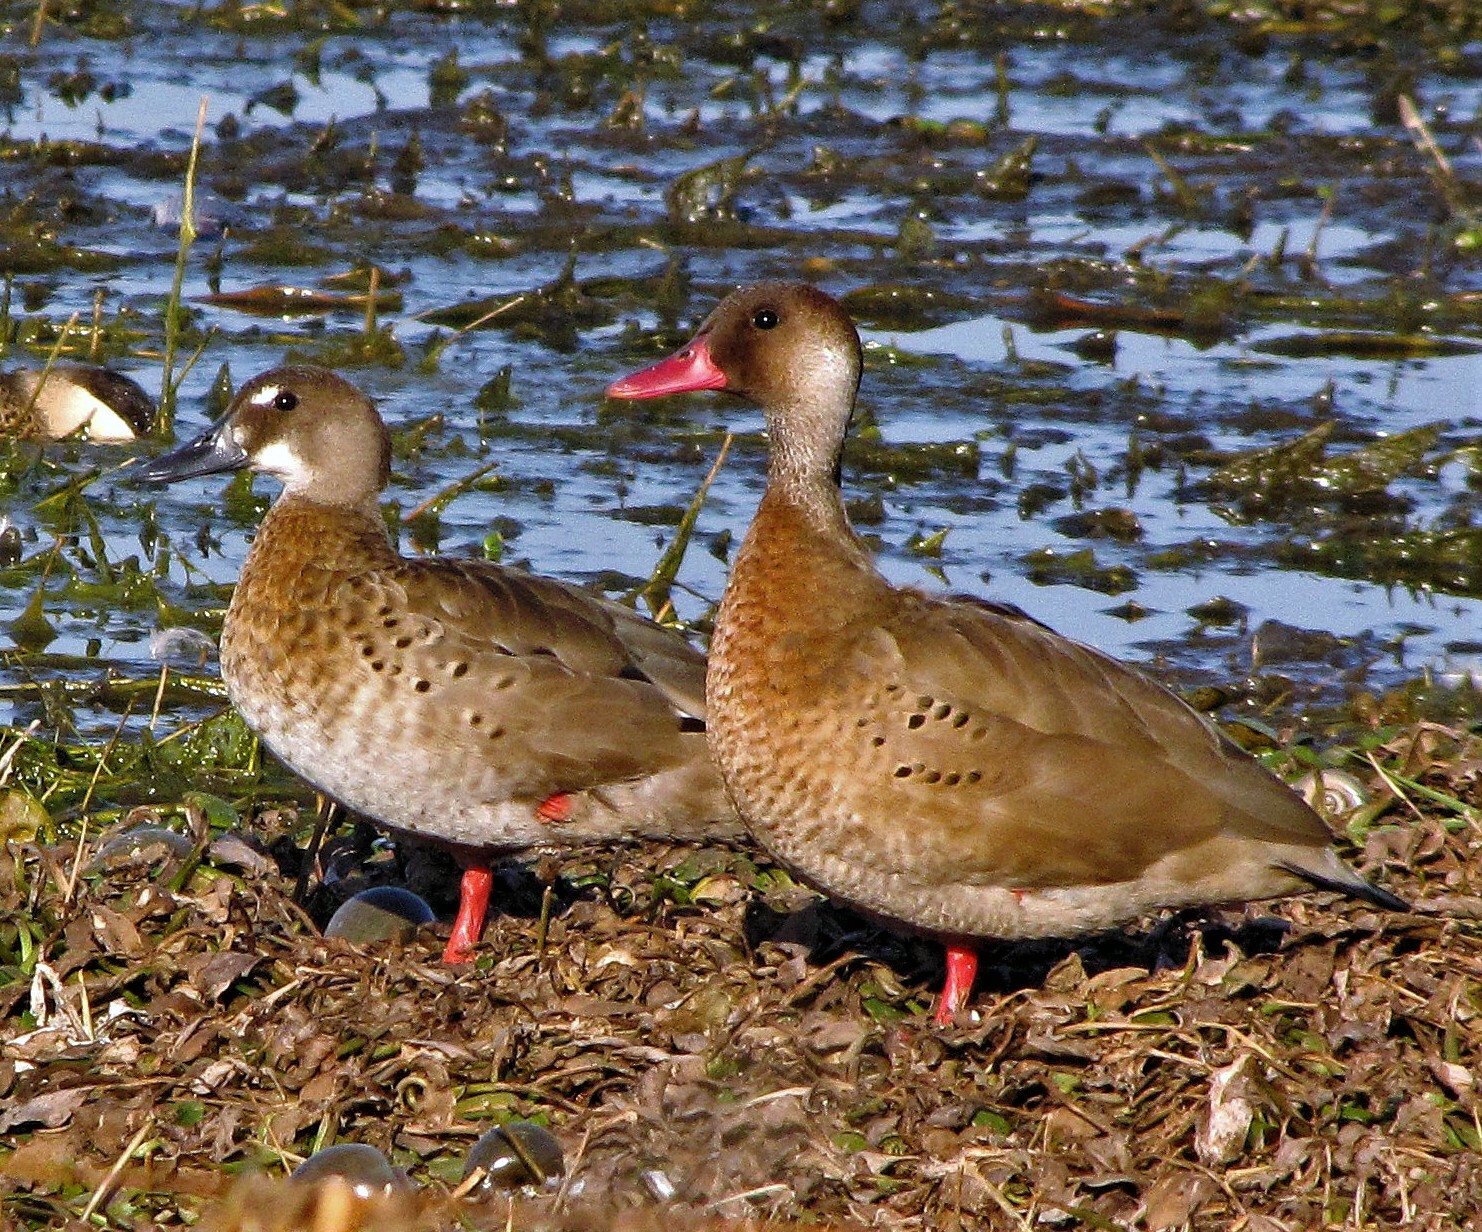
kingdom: Animalia
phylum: Chordata
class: Aves
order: Anseriformes
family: Anatidae
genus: Amazonetta
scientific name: Amazonetta brasiliensis
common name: Brazilian teal
